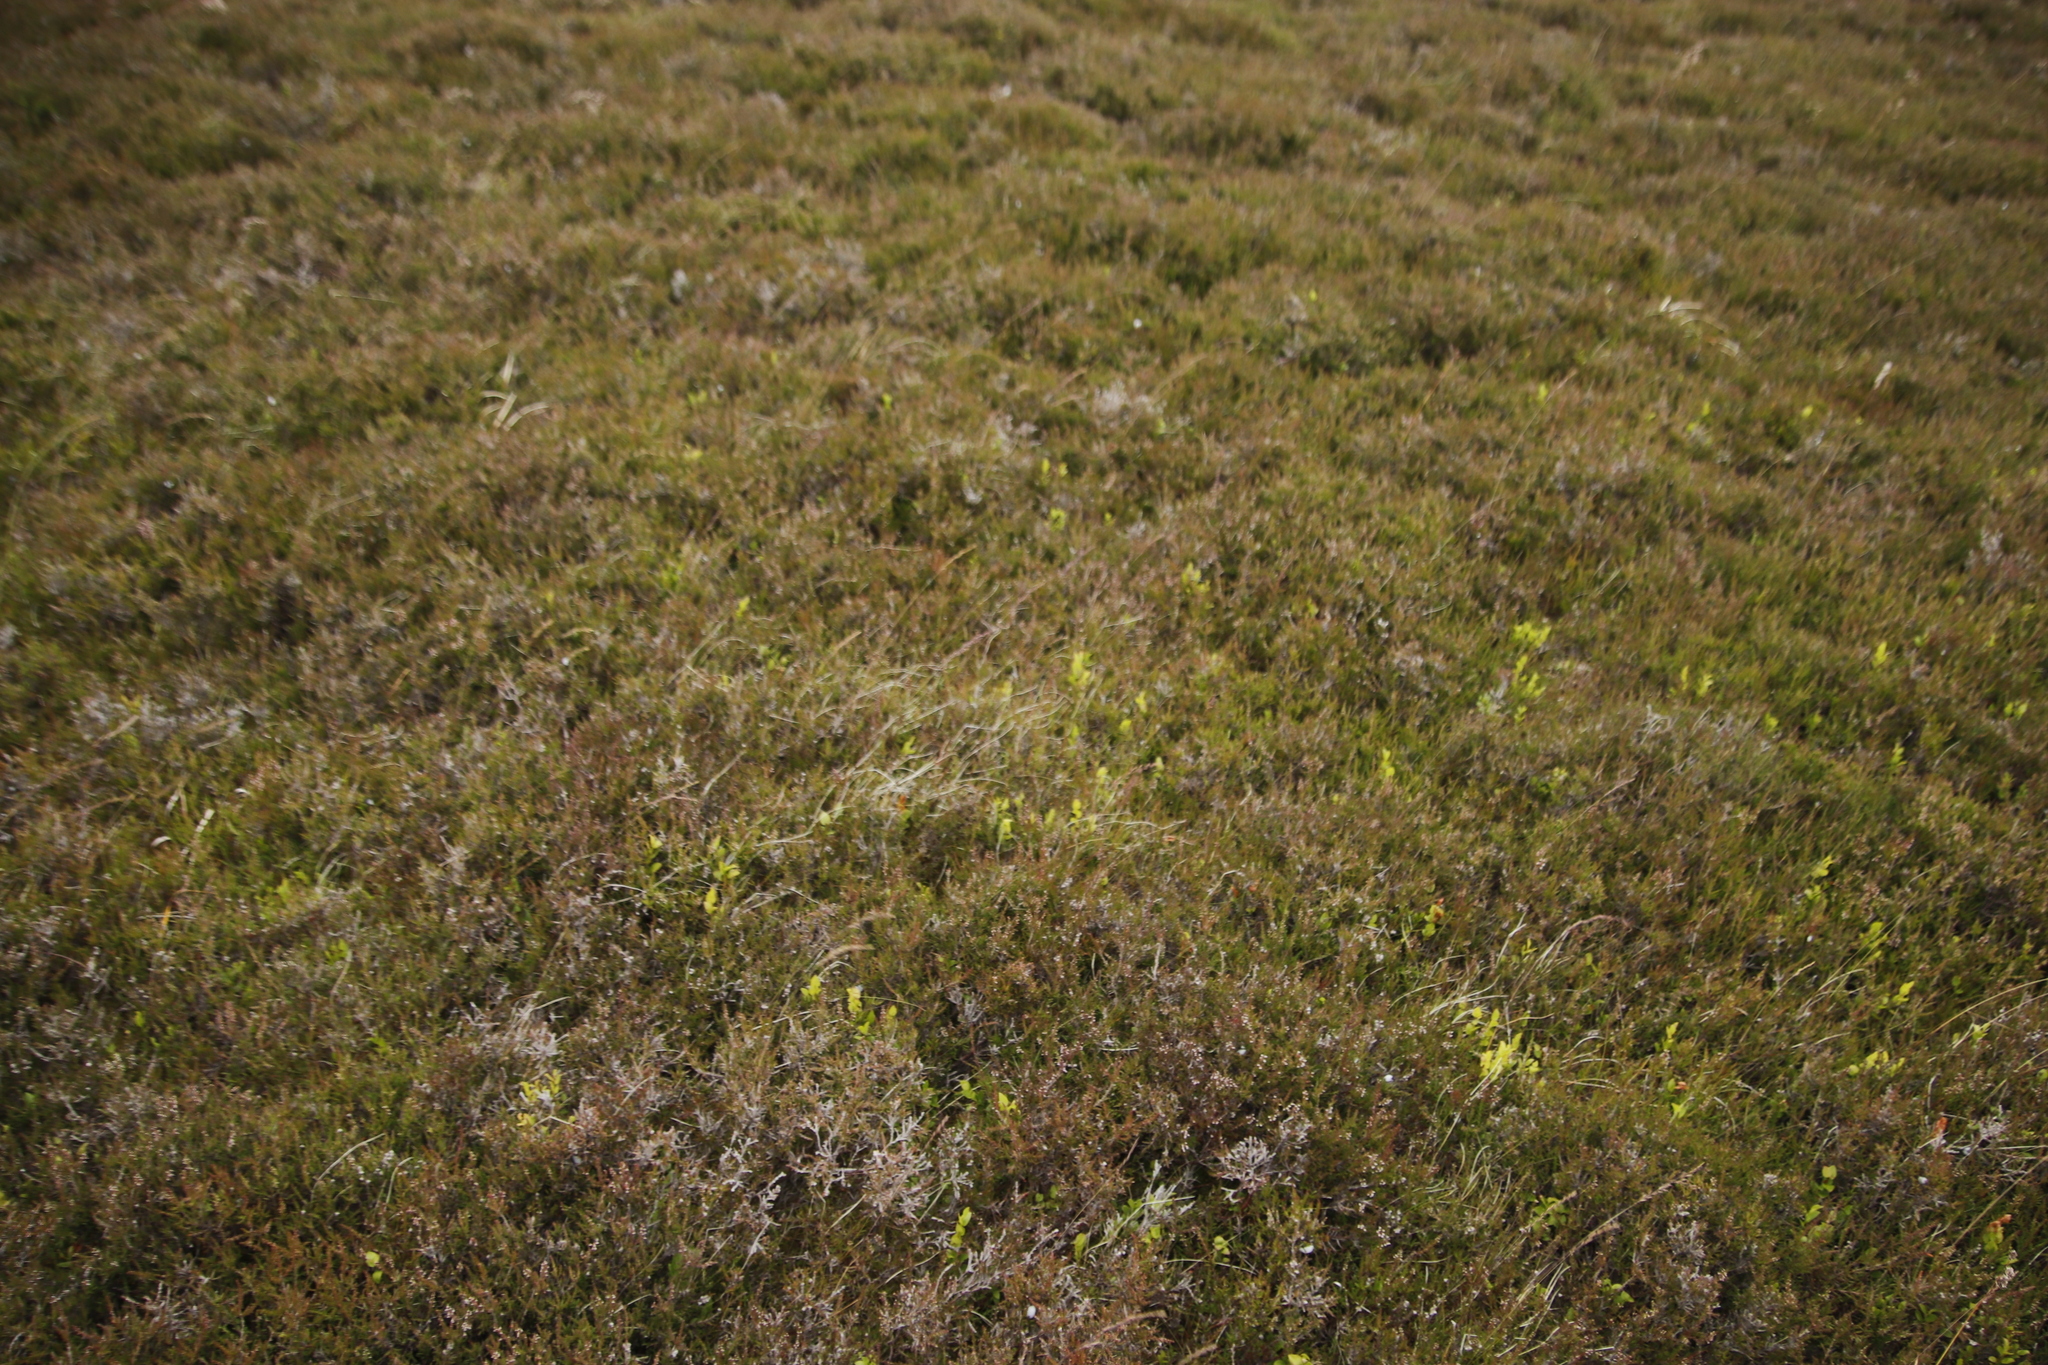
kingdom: Plantae
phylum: Tracheophyta
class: Magnoliopsida
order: Ericales
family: Ericaceae
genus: Vaccinium
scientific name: Vaccinium myrtillus
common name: Bilberry
